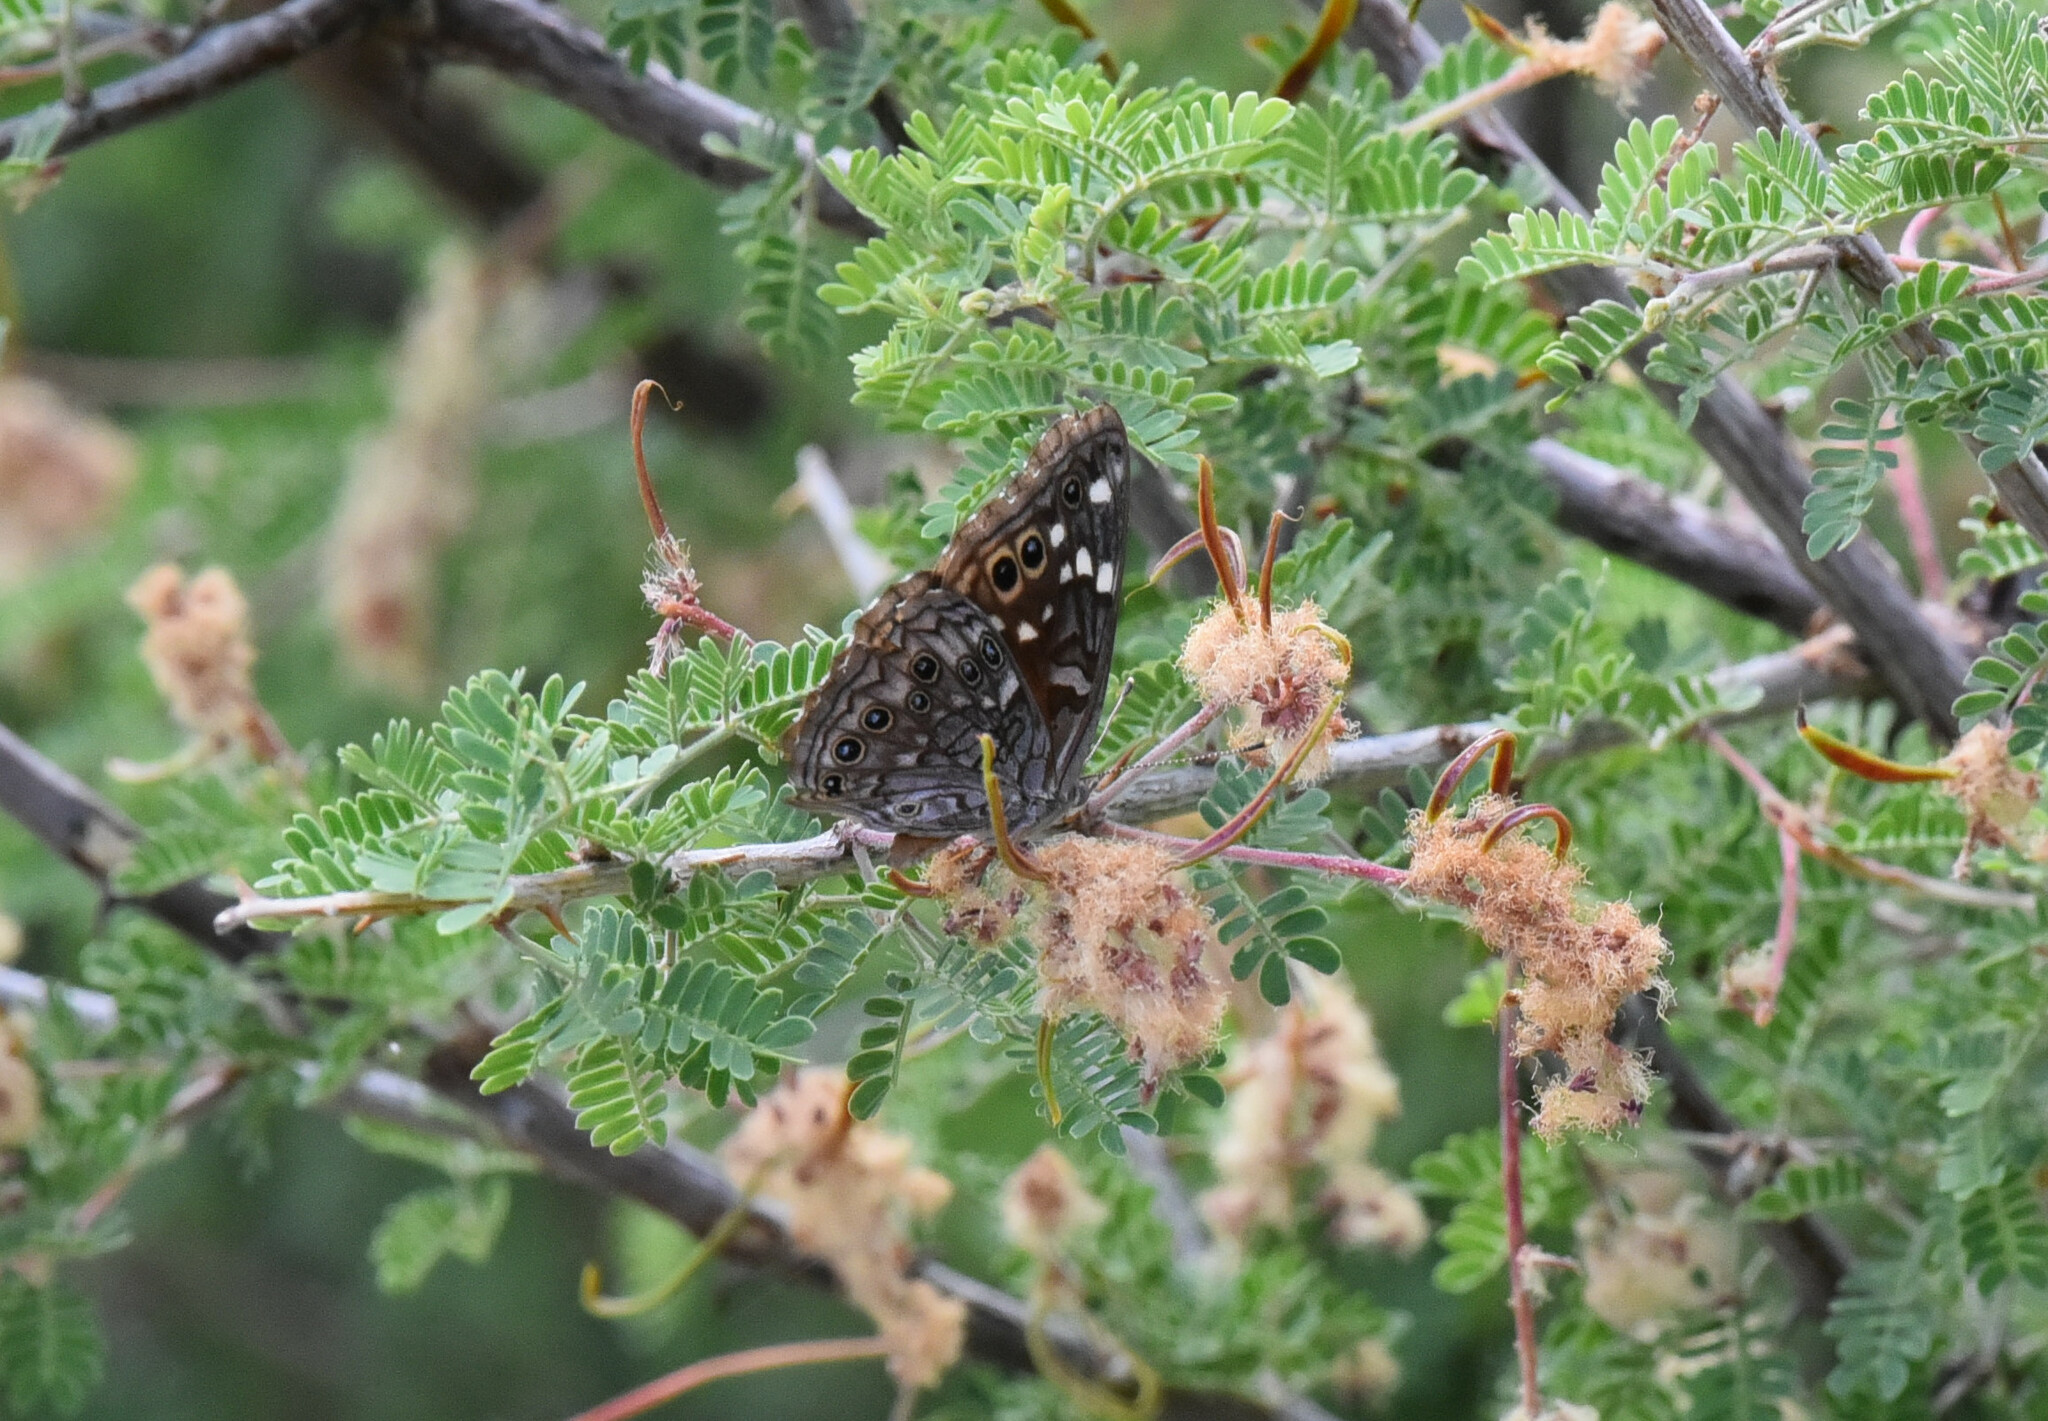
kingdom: Animalia
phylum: Arthropoda
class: Insecta
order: Lepidoptera
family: Nymphalidae
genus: Asterocampa
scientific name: Asterocampa leilia
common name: Empress leilia
